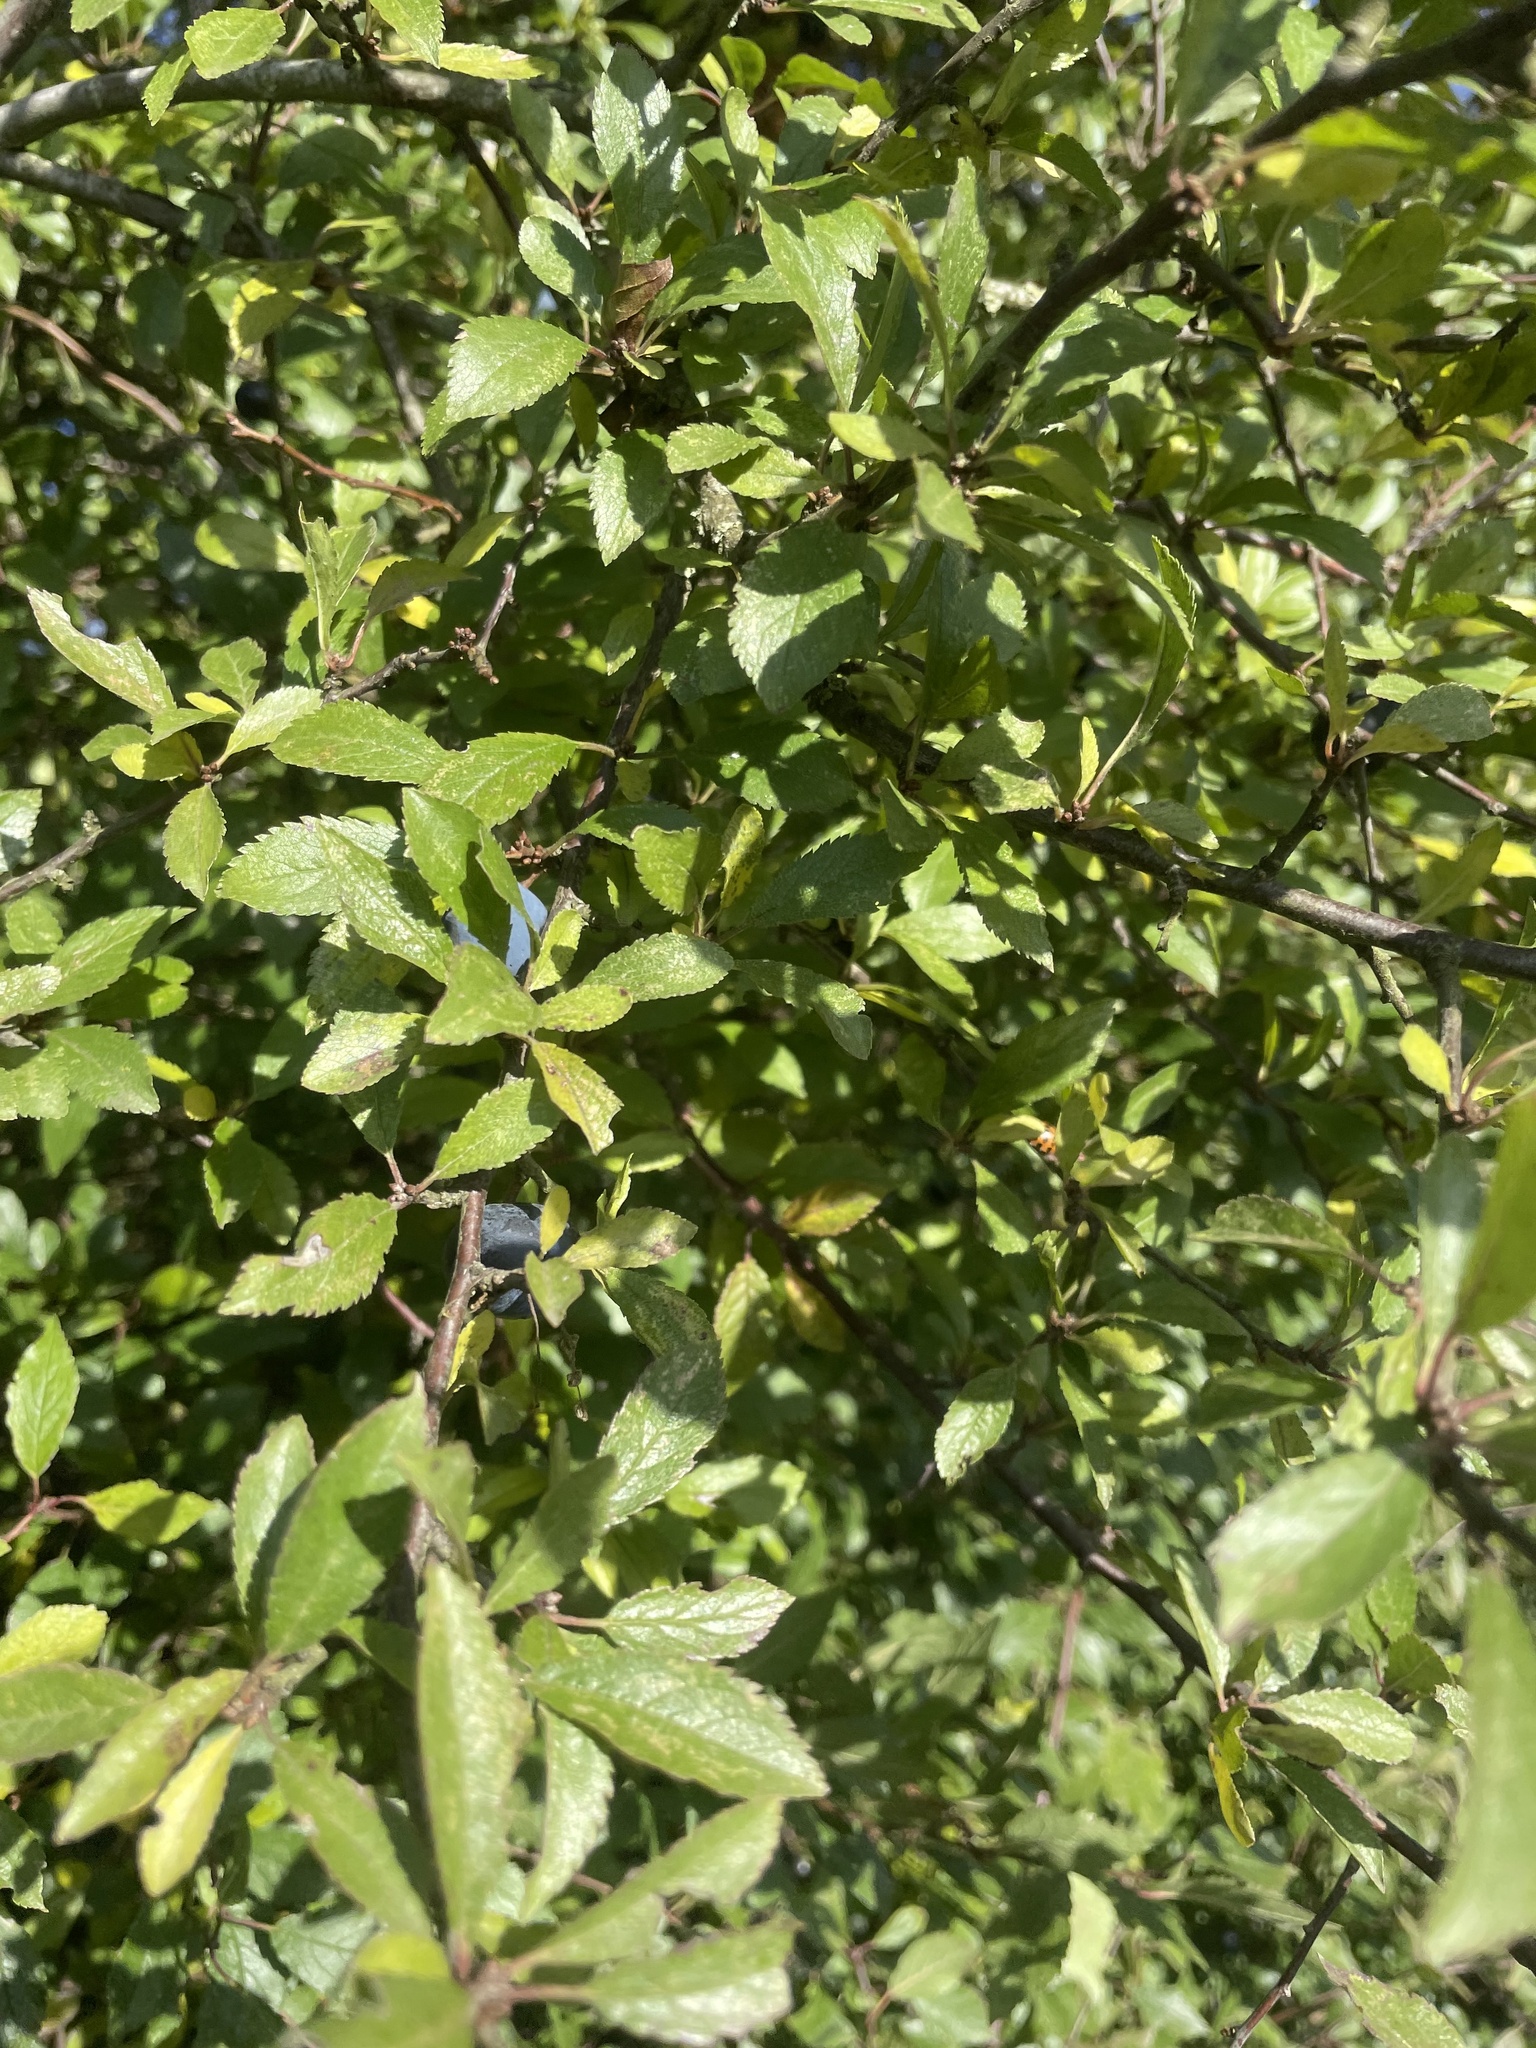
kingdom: Plantae
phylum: Tracheophyta
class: Magnoliopsida
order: Rosales
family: Rosaceae
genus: Prunus
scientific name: Prunus spinosa
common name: Blackthorn
